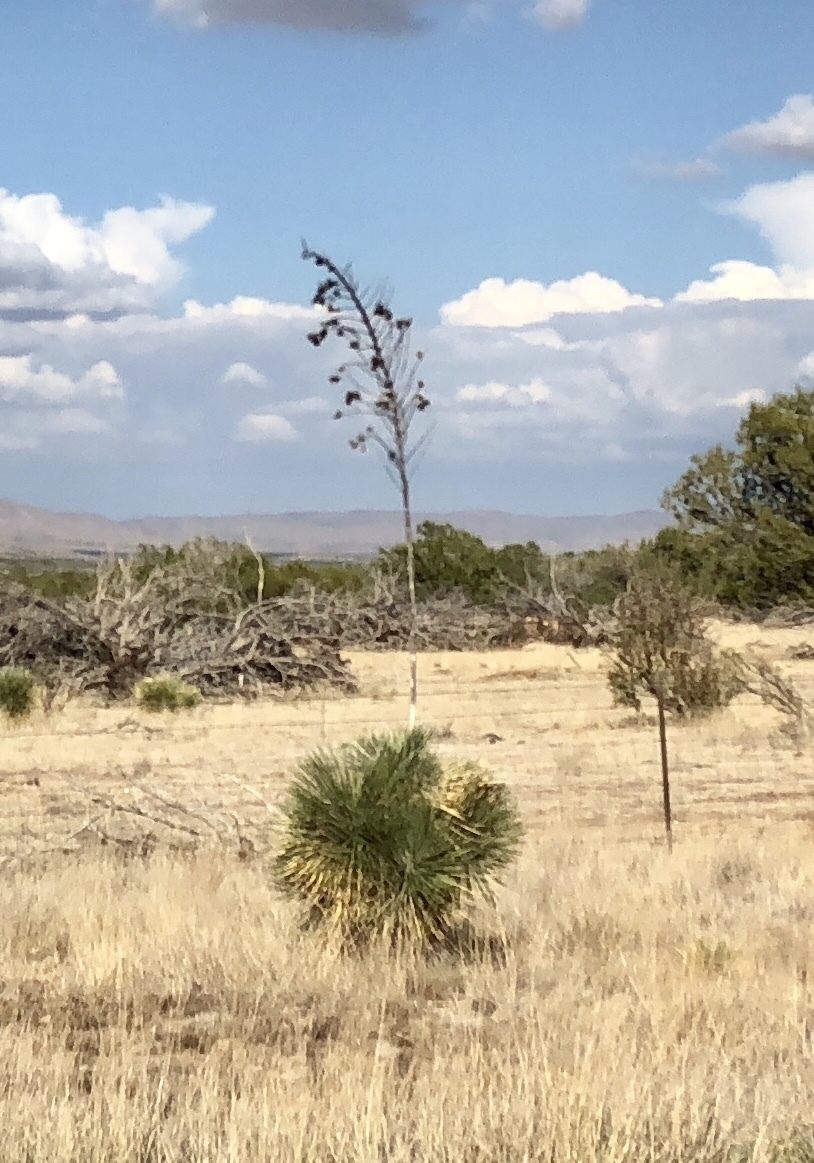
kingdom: Plantae
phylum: Tracheophyta
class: Liliopsida
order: Asparagales
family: Asparagaceae
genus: Yucca
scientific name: Yucca elata
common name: Palmella
